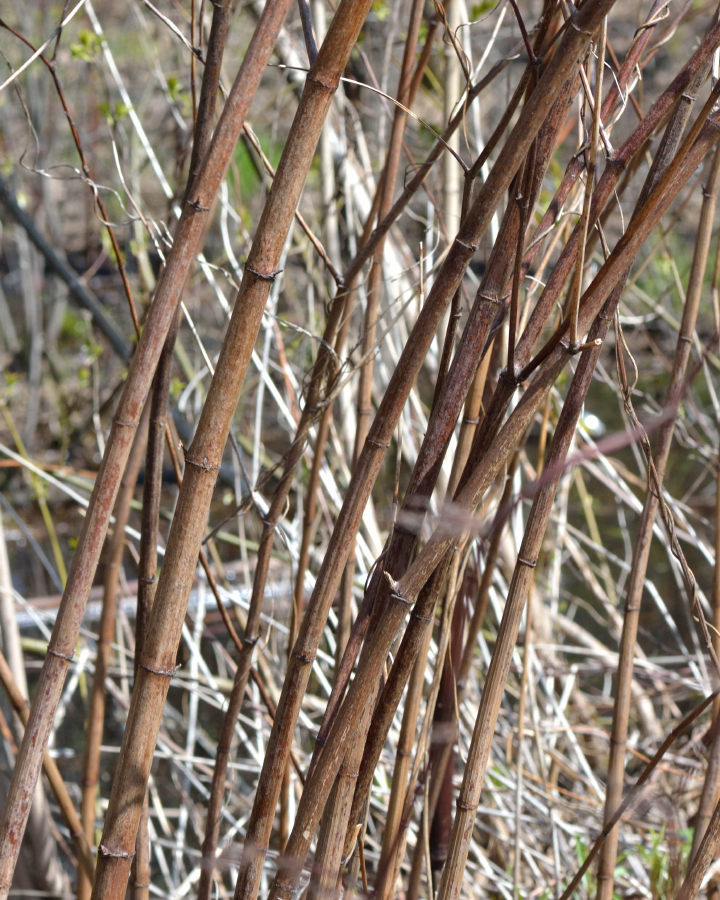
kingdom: Plantae
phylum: Tracheophyta
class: Magnoliopsida
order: Caryophyllales
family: Polygonaceae
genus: Reynoutria
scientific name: Reynoutria japonica
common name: Japanese knotweed
